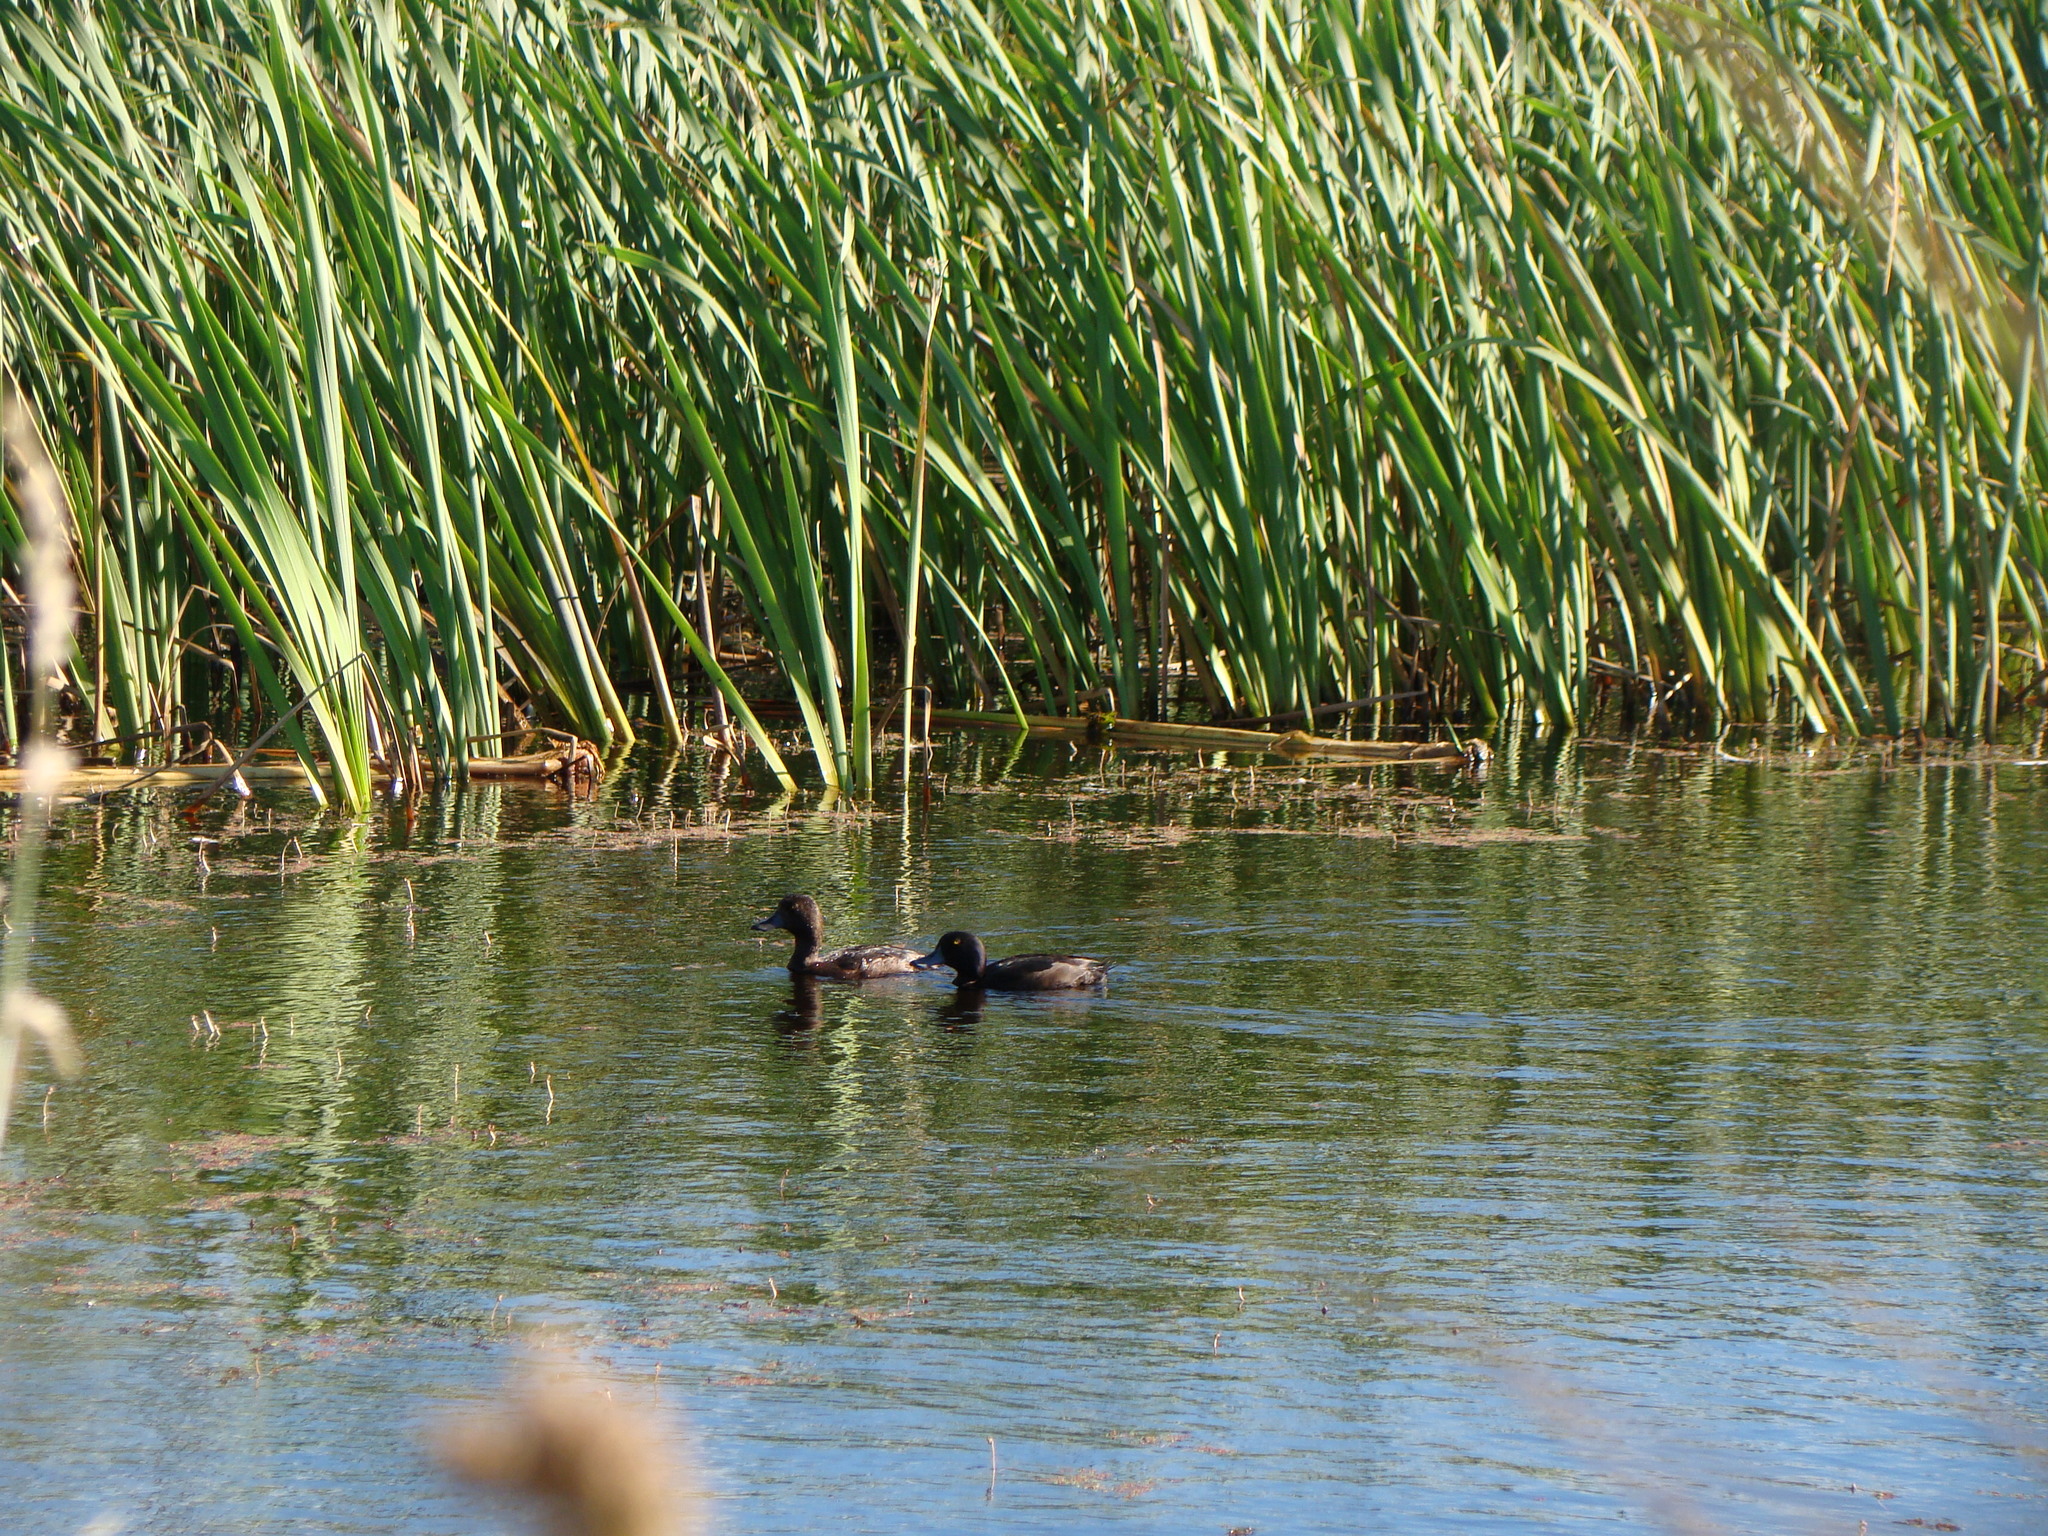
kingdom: Animalia
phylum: Chordata
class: Aves
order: Anseriformes
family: Anatidae
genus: Aythya
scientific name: Aythya novaeseelandiae
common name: New zealand scaup
